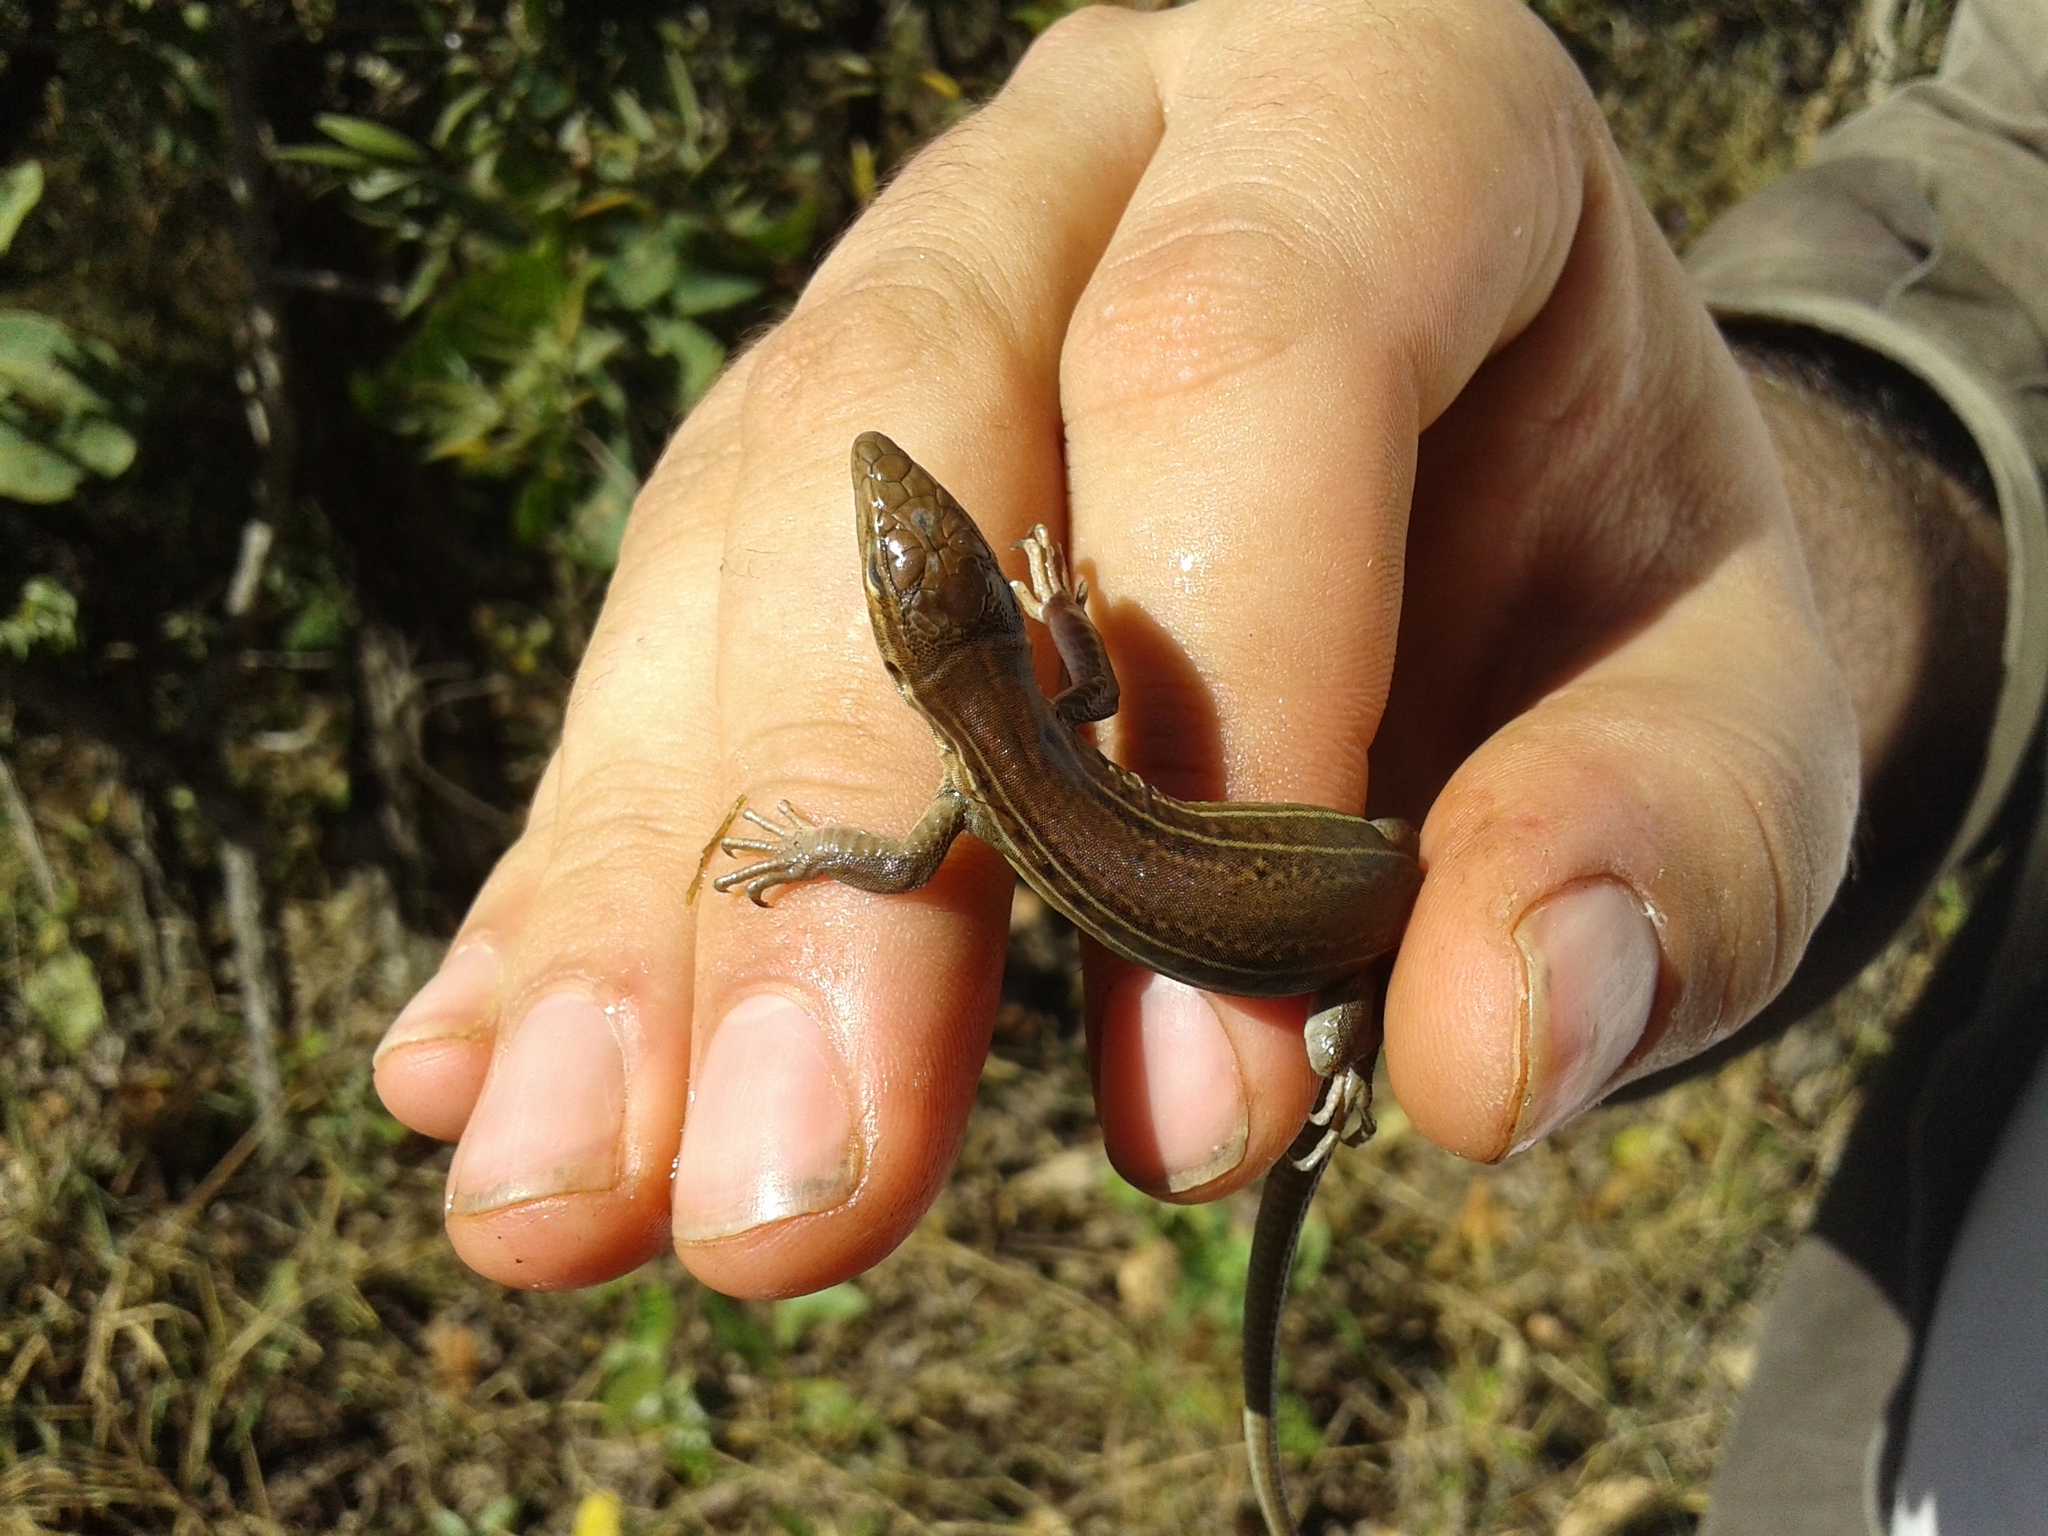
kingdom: Animalia
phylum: Chordata
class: Squamata
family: Teiidae
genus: Ameivula
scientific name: Ameivula ocellifera
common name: Spix's whiptail
